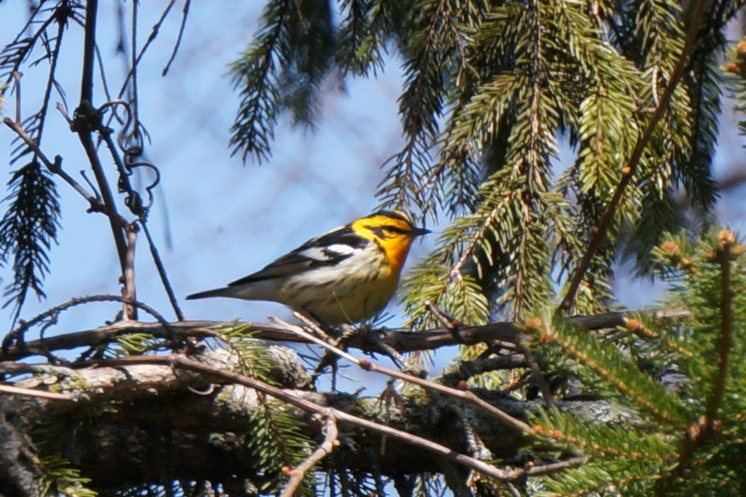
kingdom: Animalia
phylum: Chordata
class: Aves
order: Passeriformes
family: Parulidae
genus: Setophaga
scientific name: Setophaga fusca
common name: Blackburnian warbler
